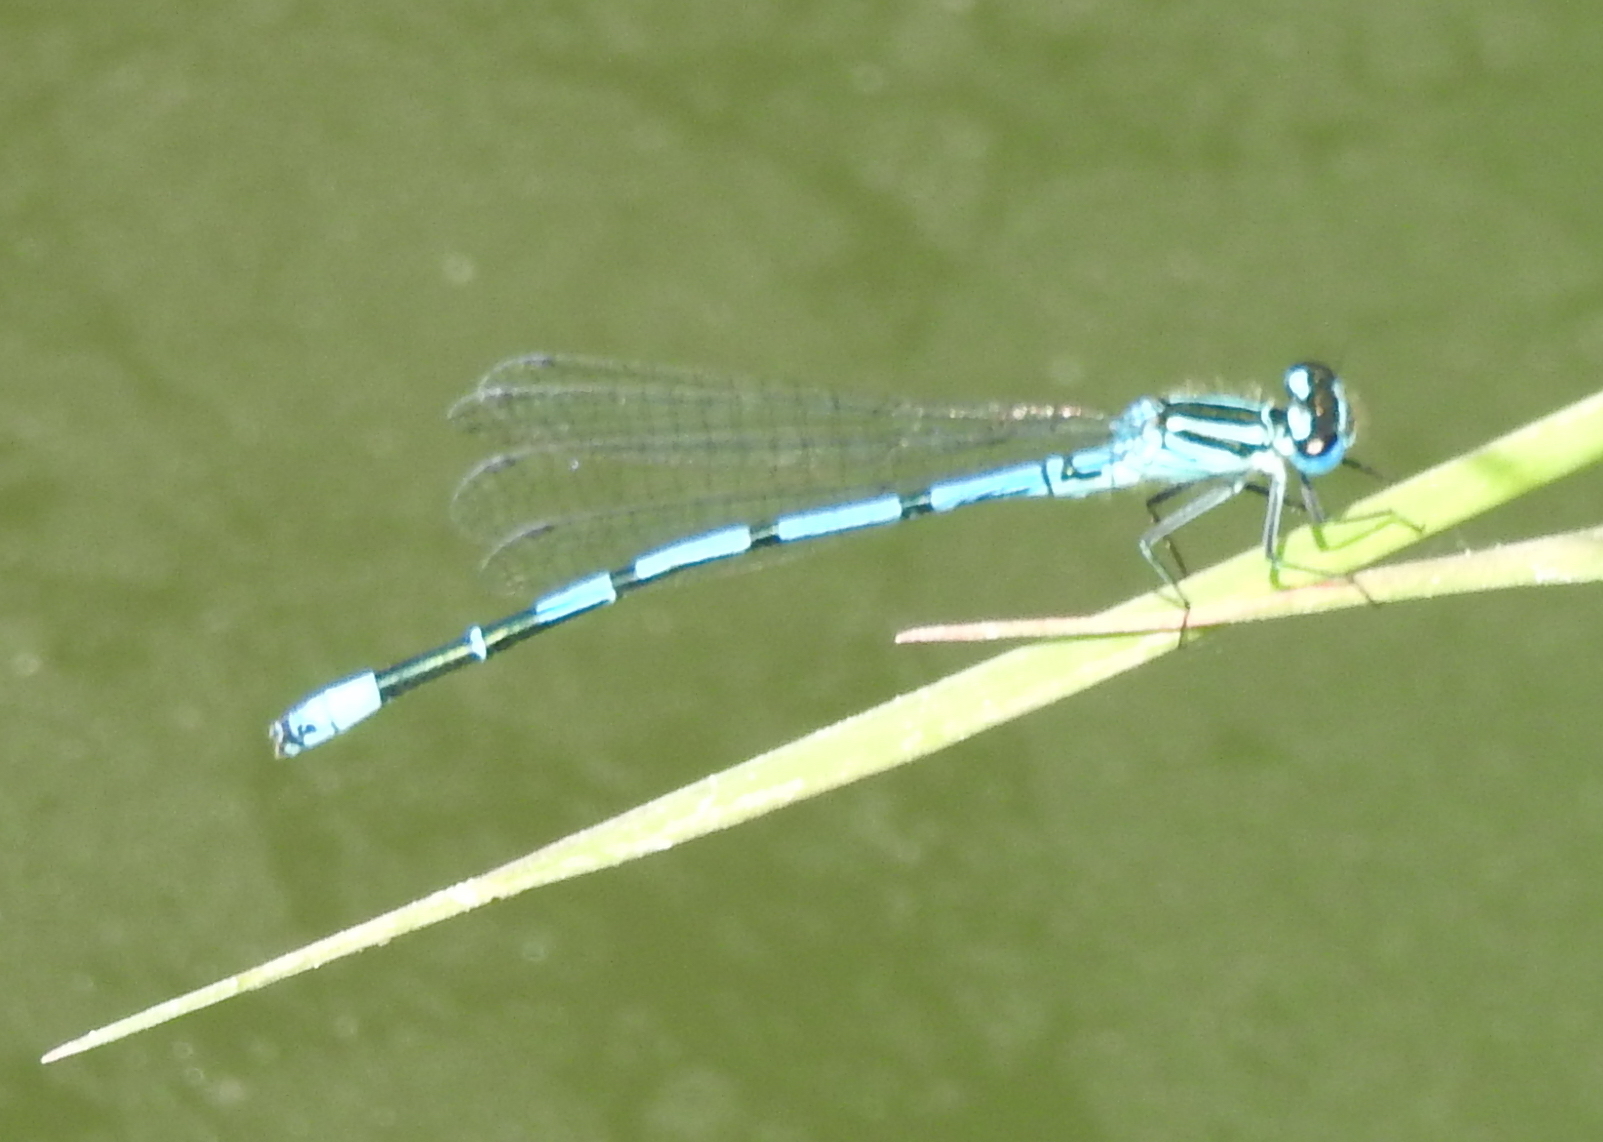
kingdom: Animalia
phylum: Arthropoda
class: Insecta
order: Odonata
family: Coenagrionidae
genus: Coenagrion
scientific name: Coenagrion puella
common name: Azure damselfly
